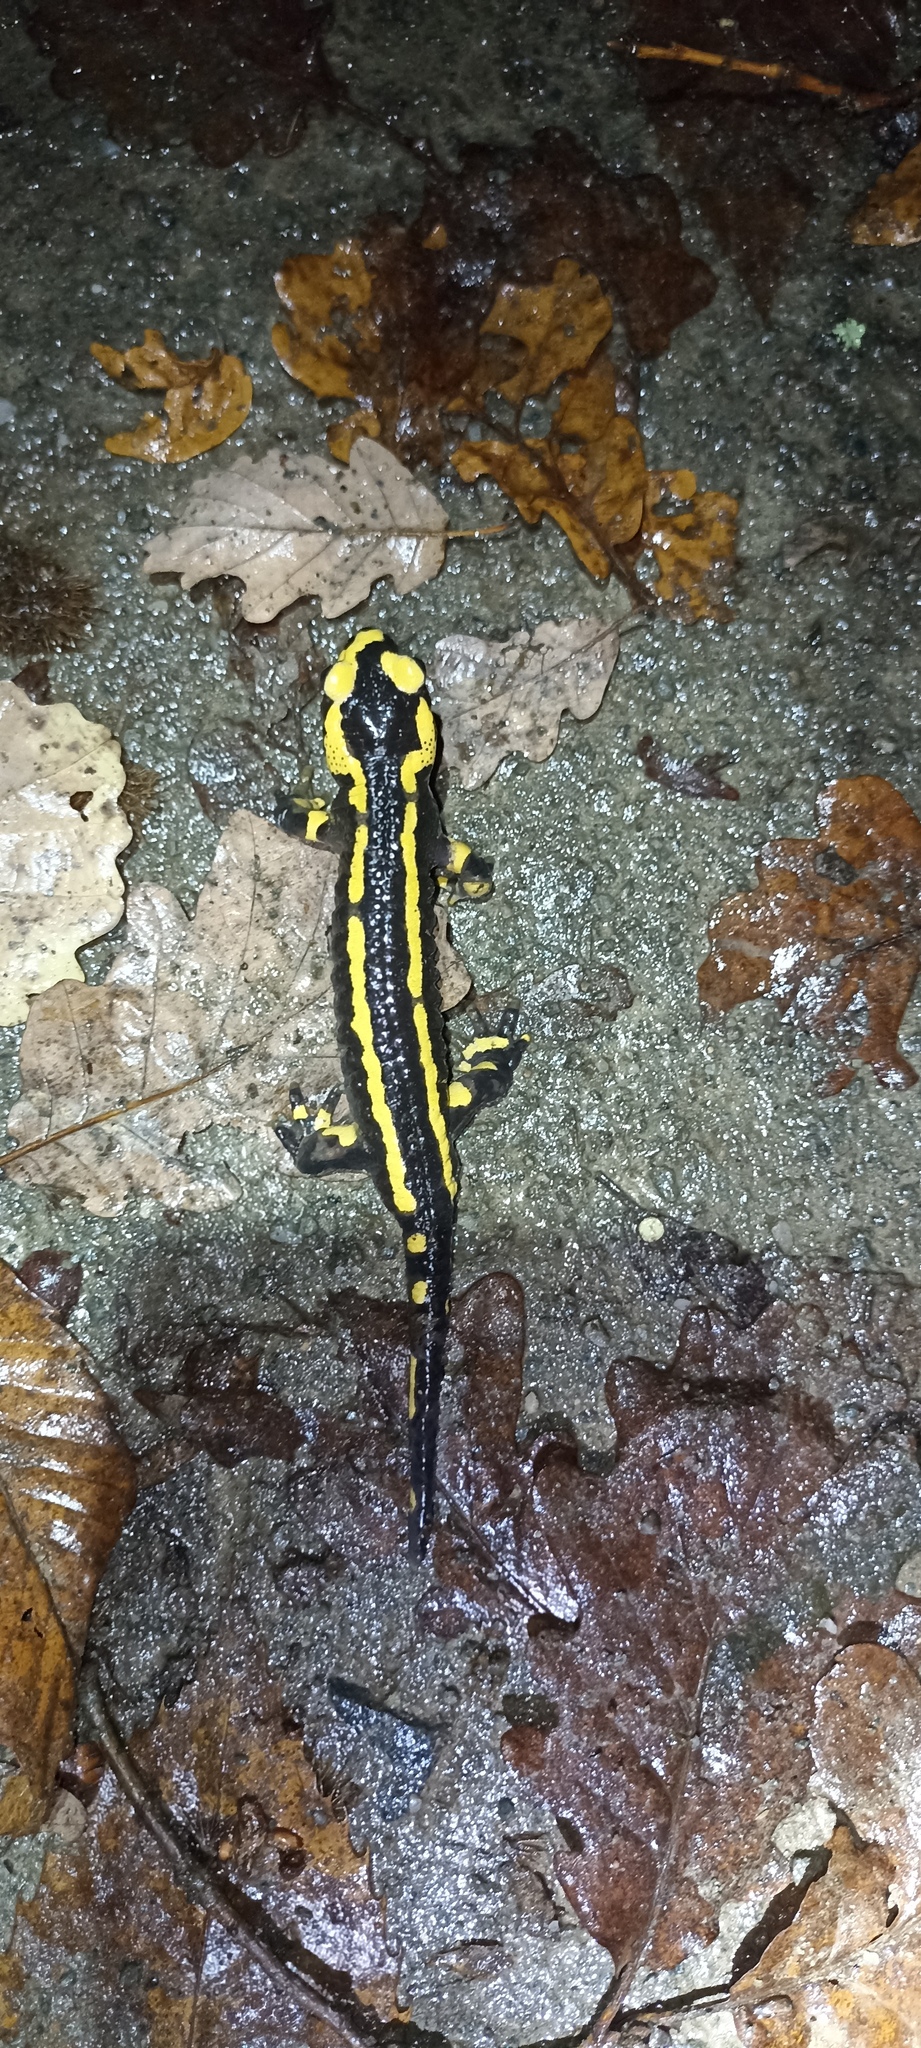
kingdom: Animalia
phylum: Chordata
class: Amphibia
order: Caudata
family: Salamandridae
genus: Salamandra
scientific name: Salamandra salamandra
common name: Fire salamander
